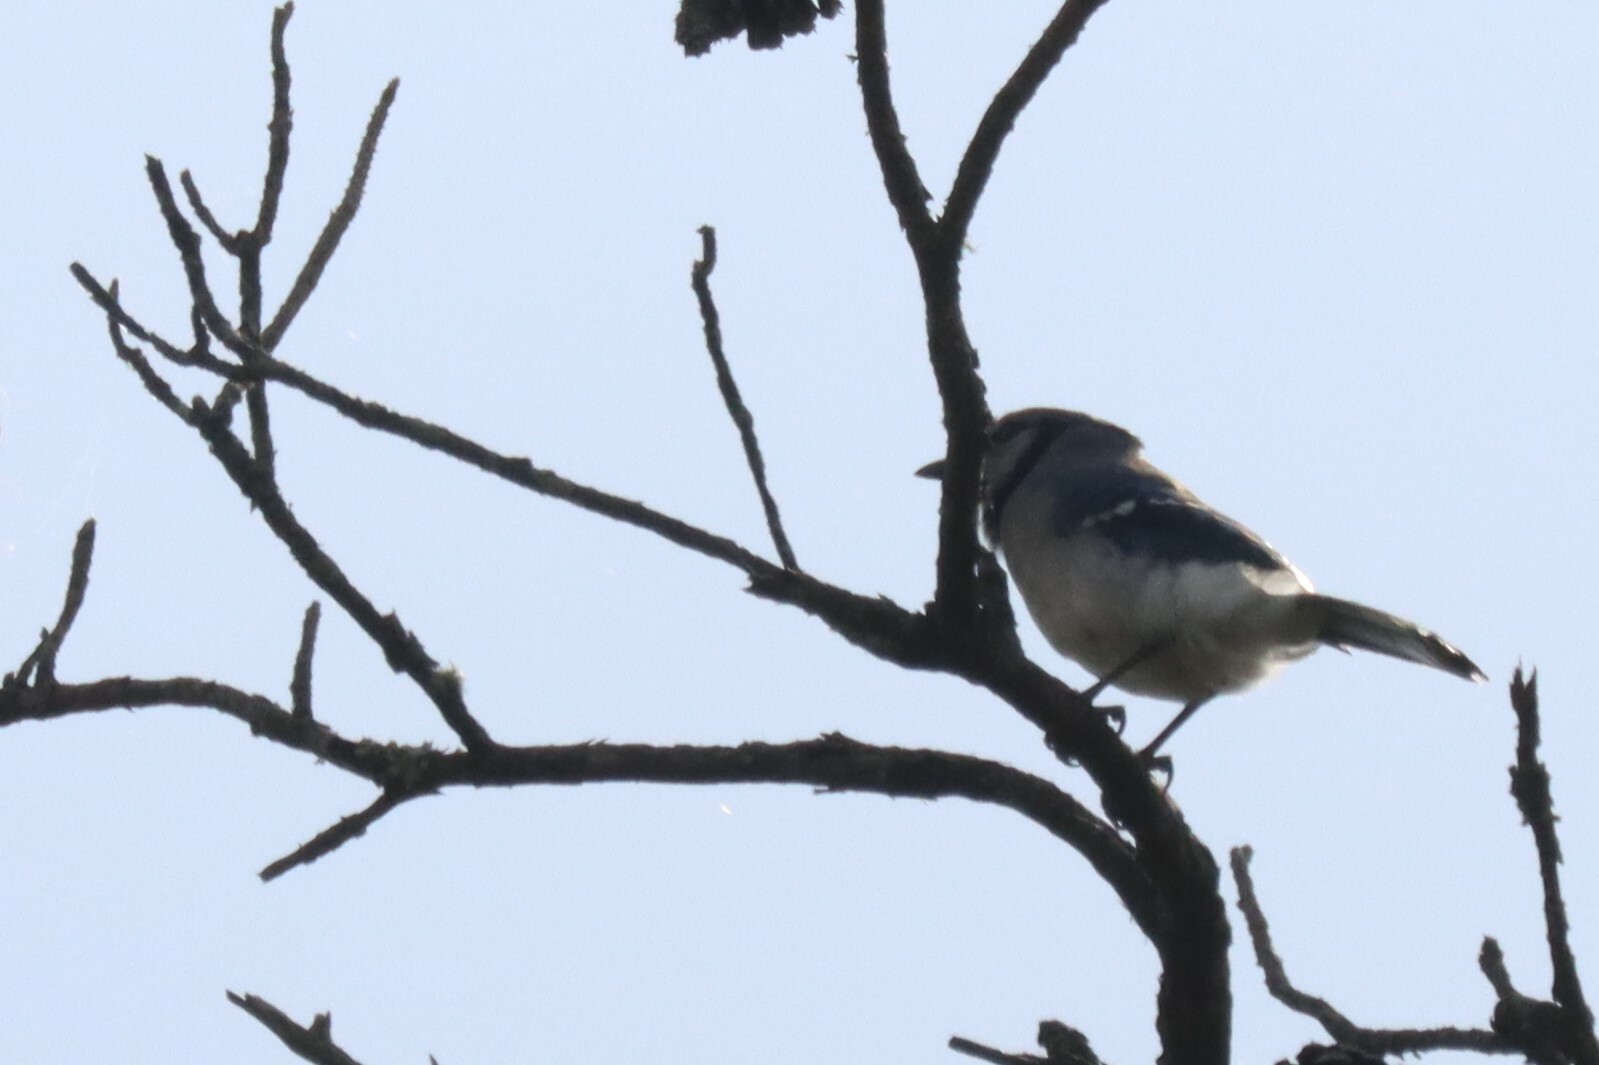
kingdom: Animalia
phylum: Chordata
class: Aves
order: Passeriformes
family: Corvidae
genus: Cyanocitta
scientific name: Cyanocitta cristata
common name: Blue jay
